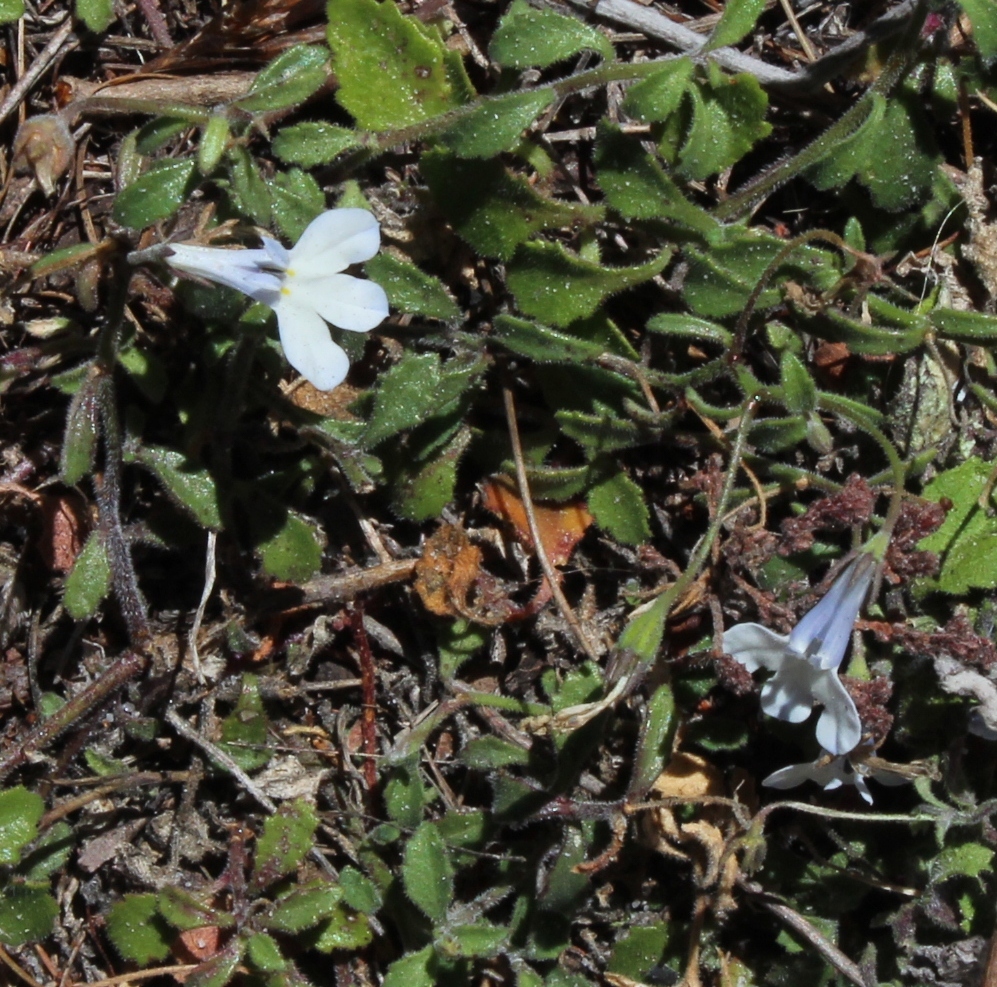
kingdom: Plantae
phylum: Tracheophyta
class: Magnoliopsida
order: Asterales
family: Campanulaceae
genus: Lobelia
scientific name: Lobelia boivinii
